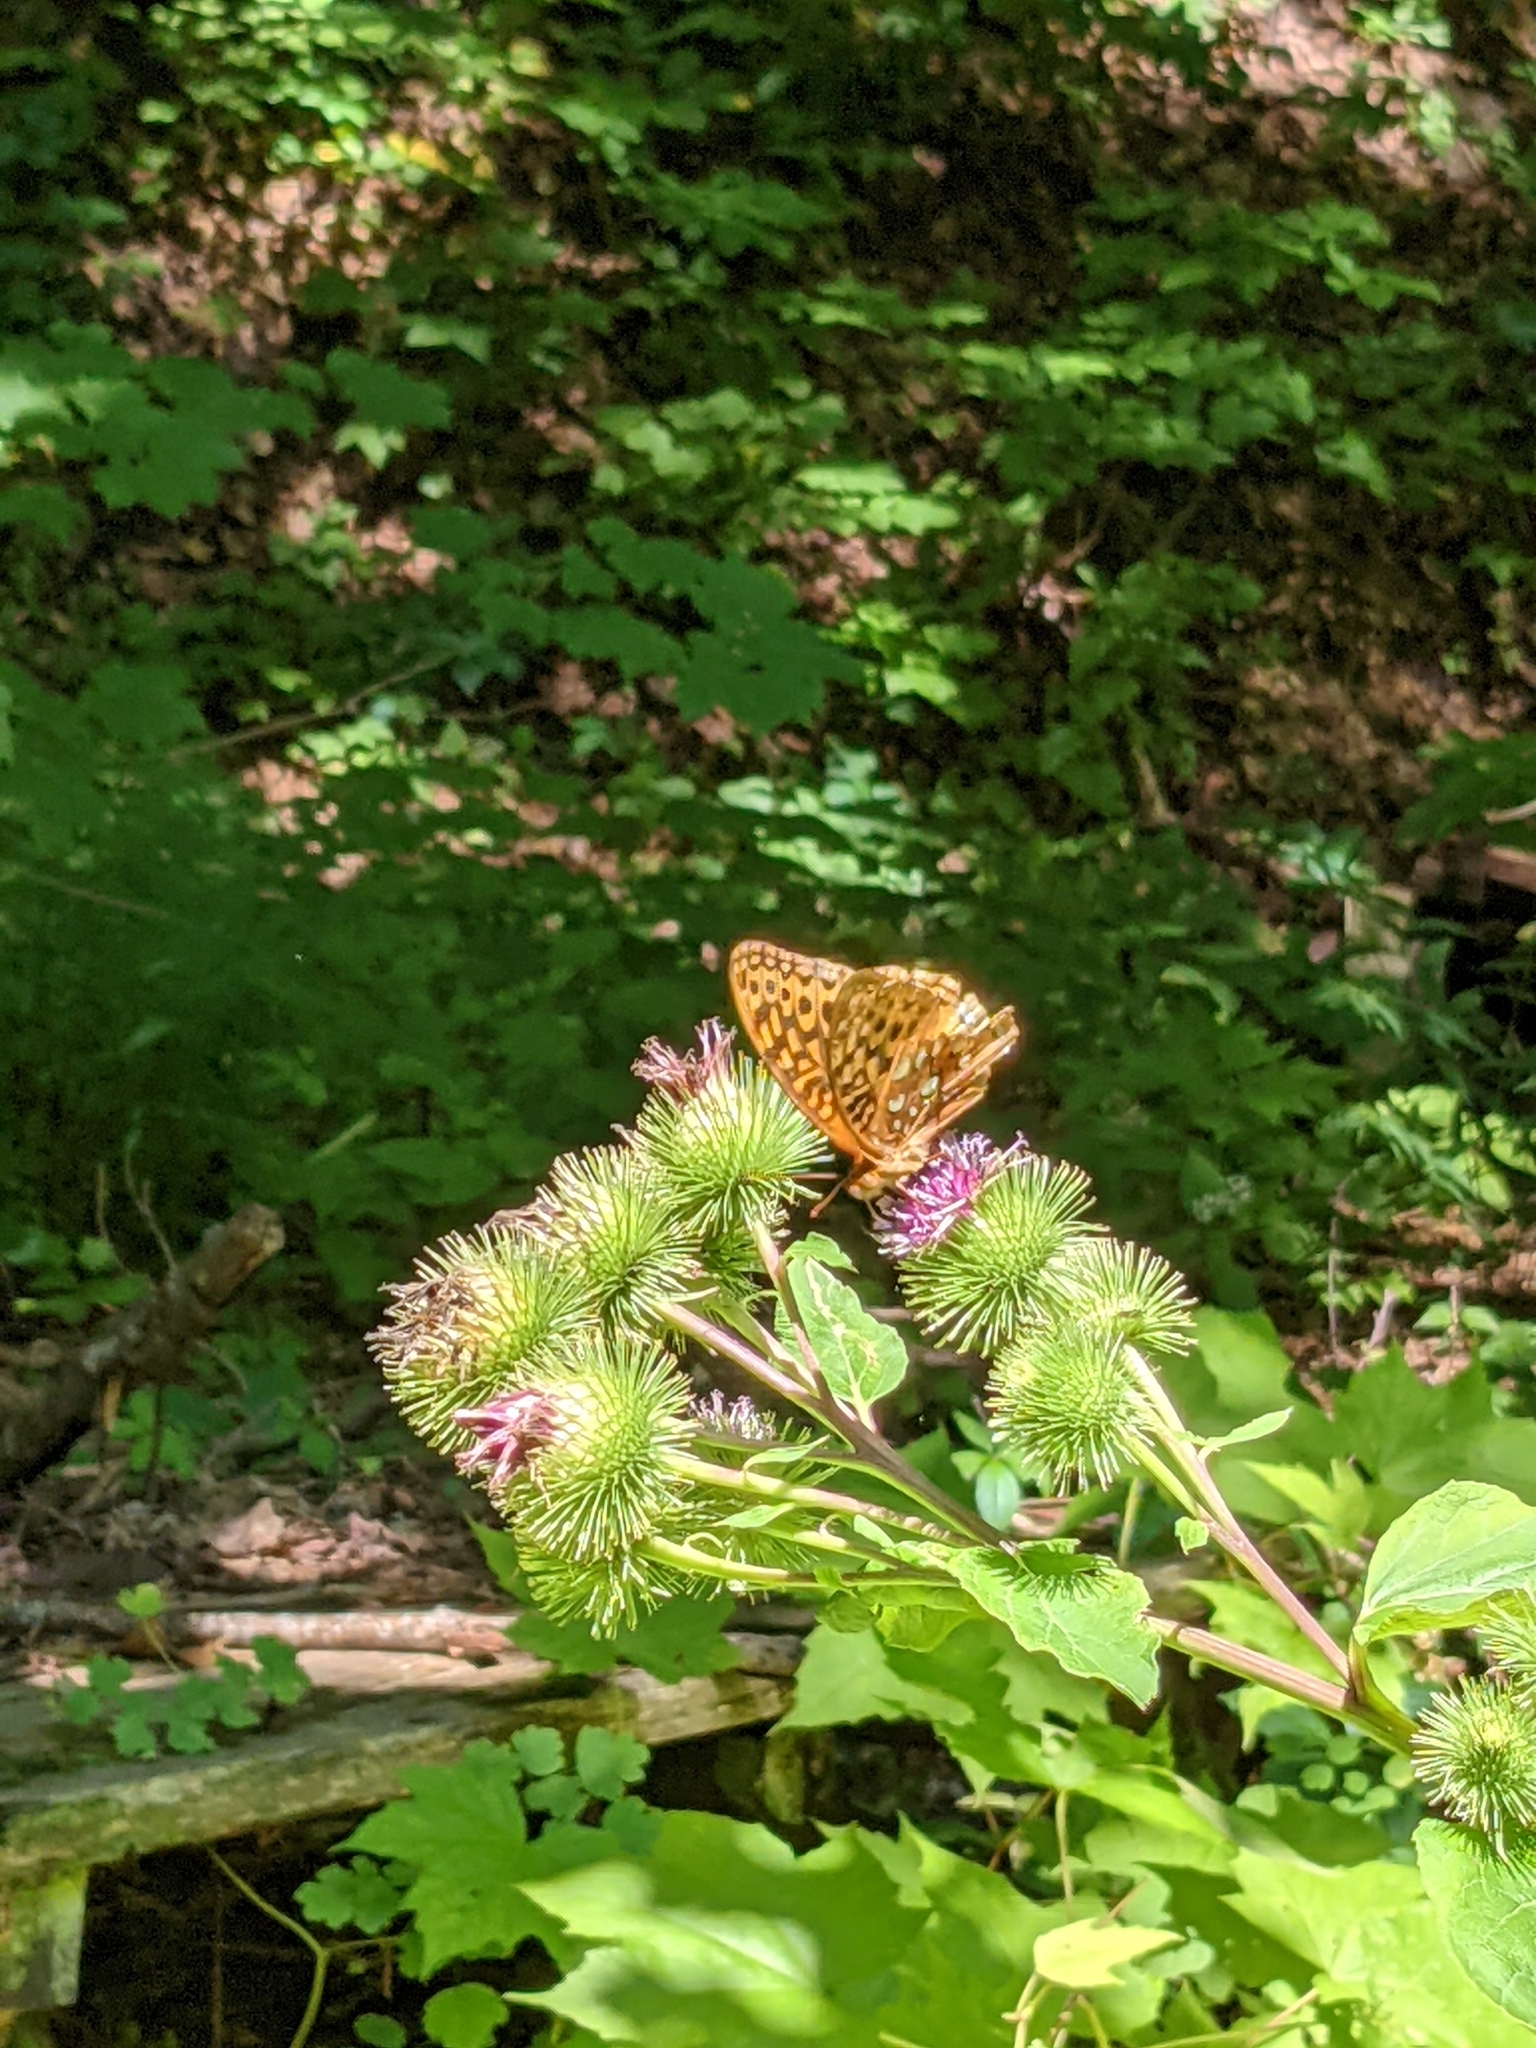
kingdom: Animalia
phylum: Arthropoda
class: Insecta
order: Lepidoptera
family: Nymphalidae
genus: Speyeria
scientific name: Speyeria cybele
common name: Great spangled fritillary
